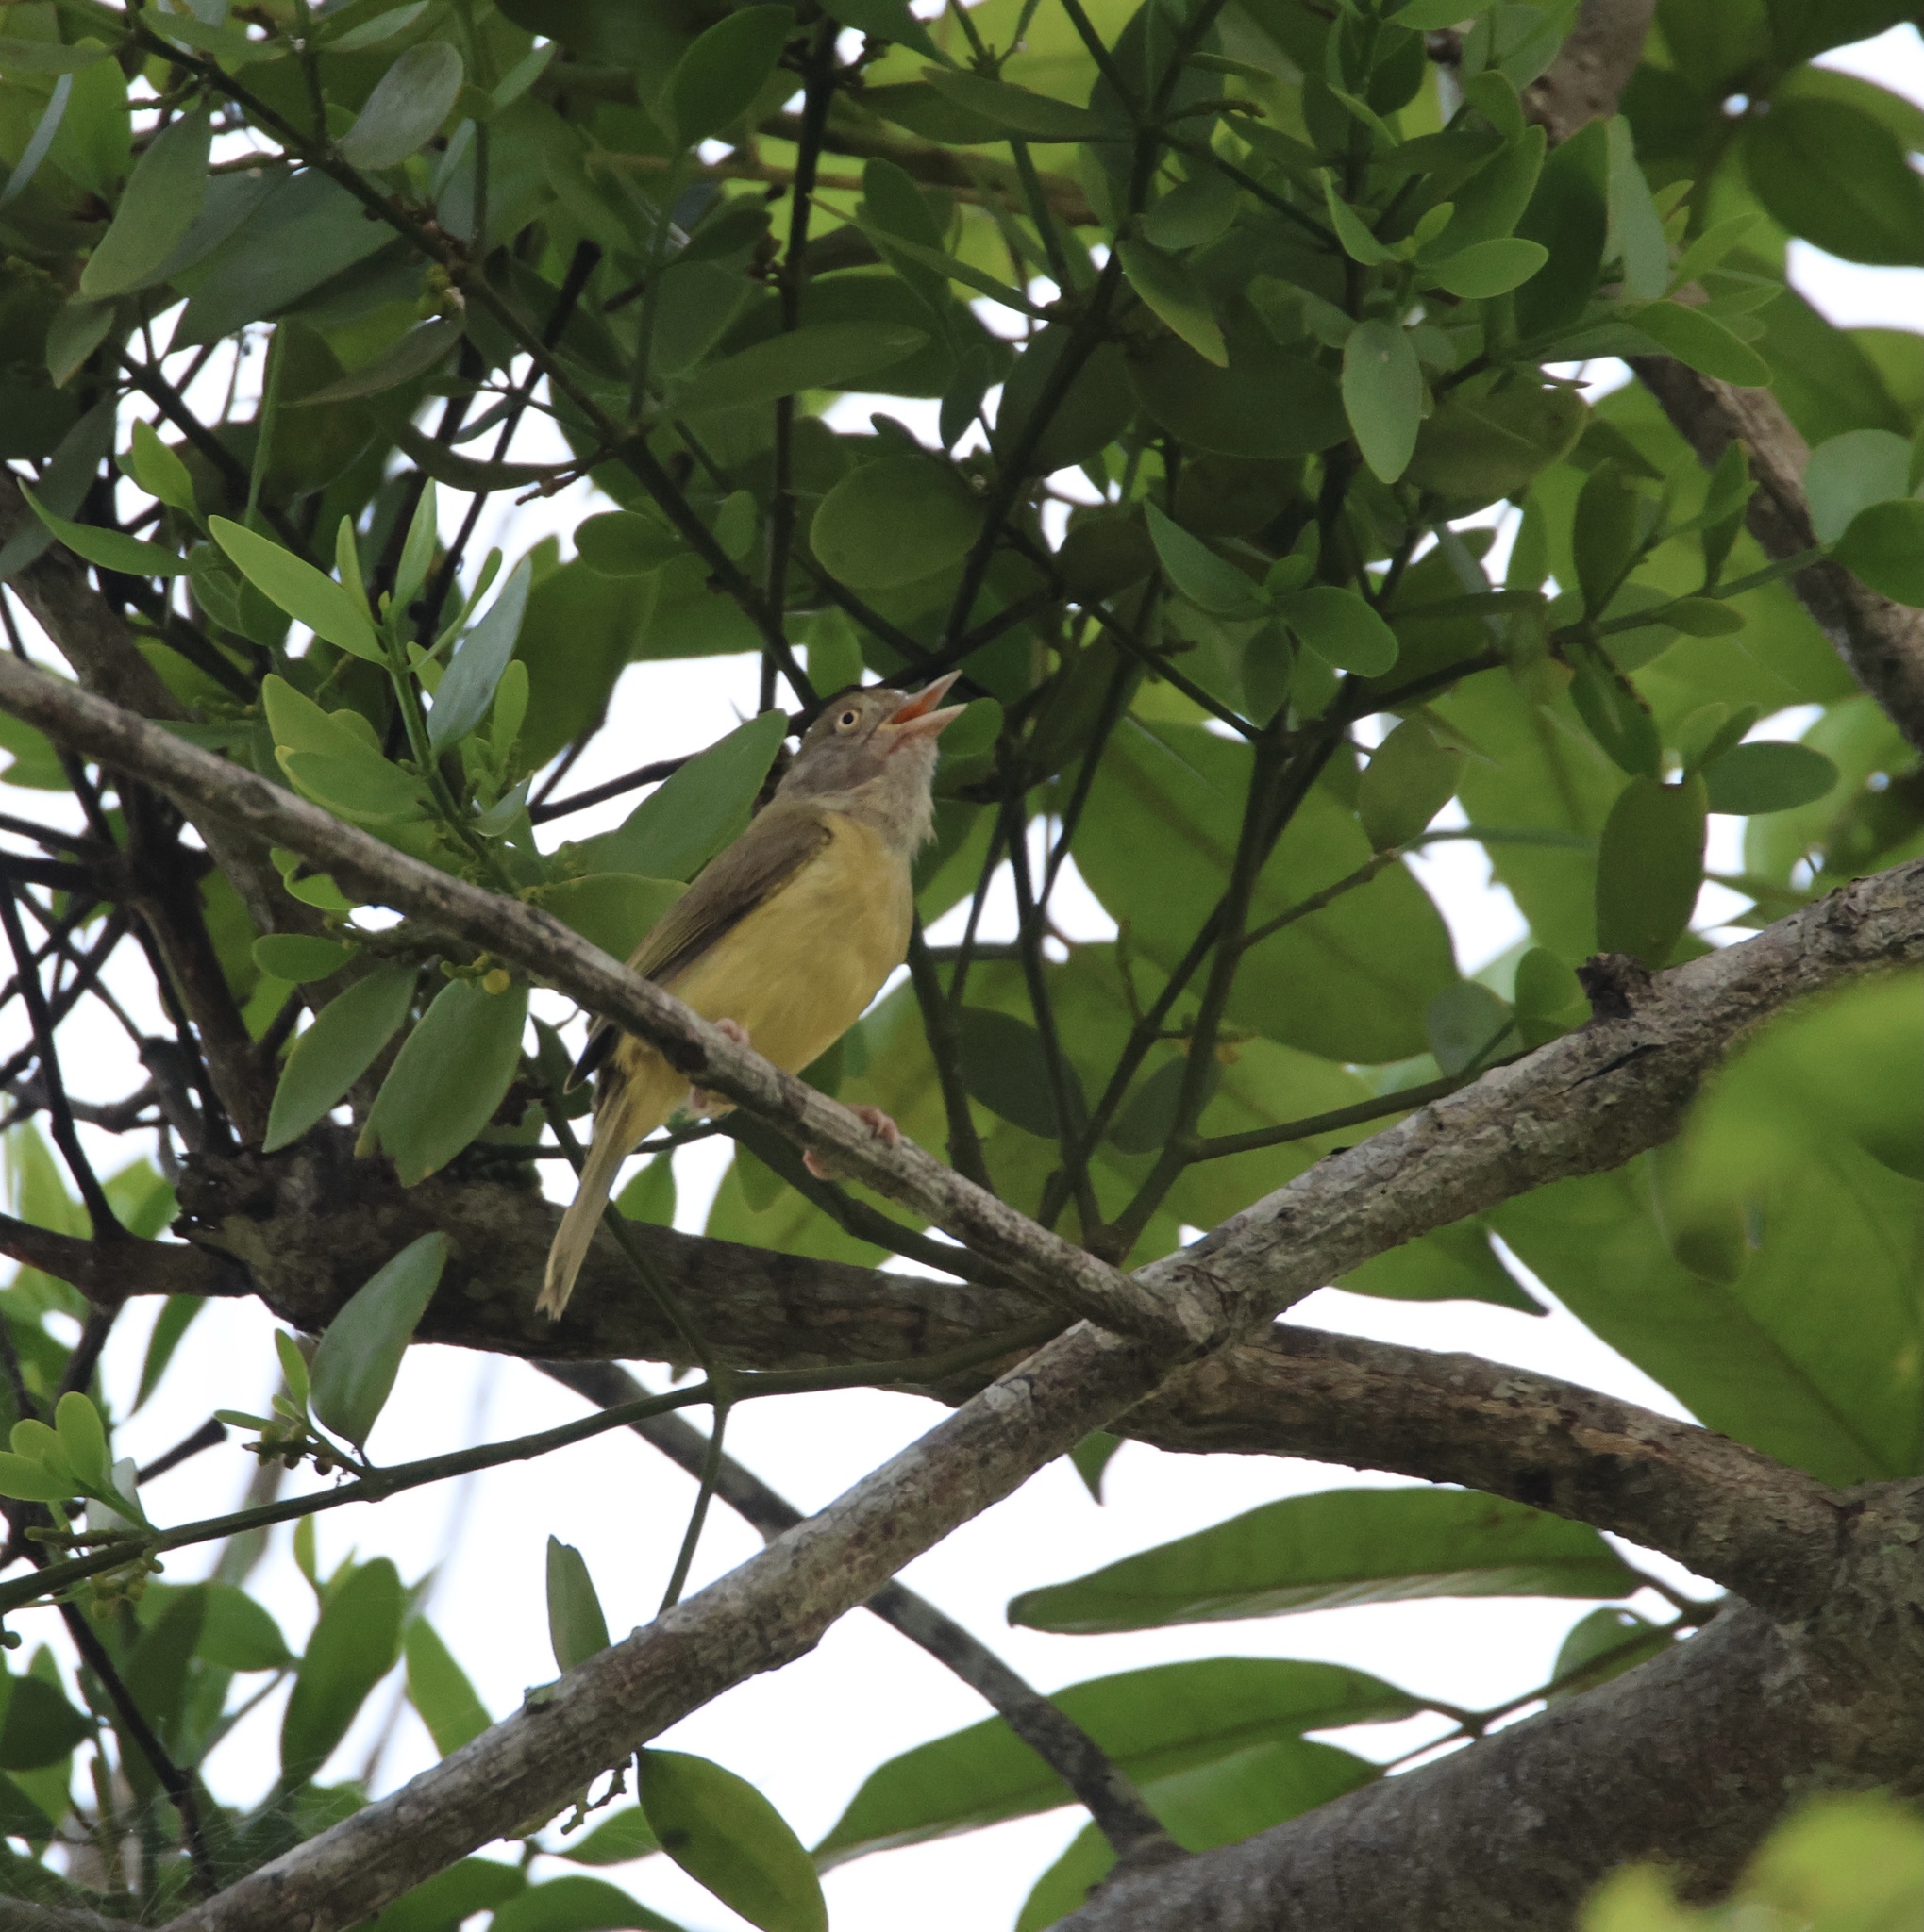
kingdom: Animalia
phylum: Chordata
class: Aves
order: Passeriformes
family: Vireonidae
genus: Hylophilus
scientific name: Hylophilus flavipes
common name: Scrub greenlet
